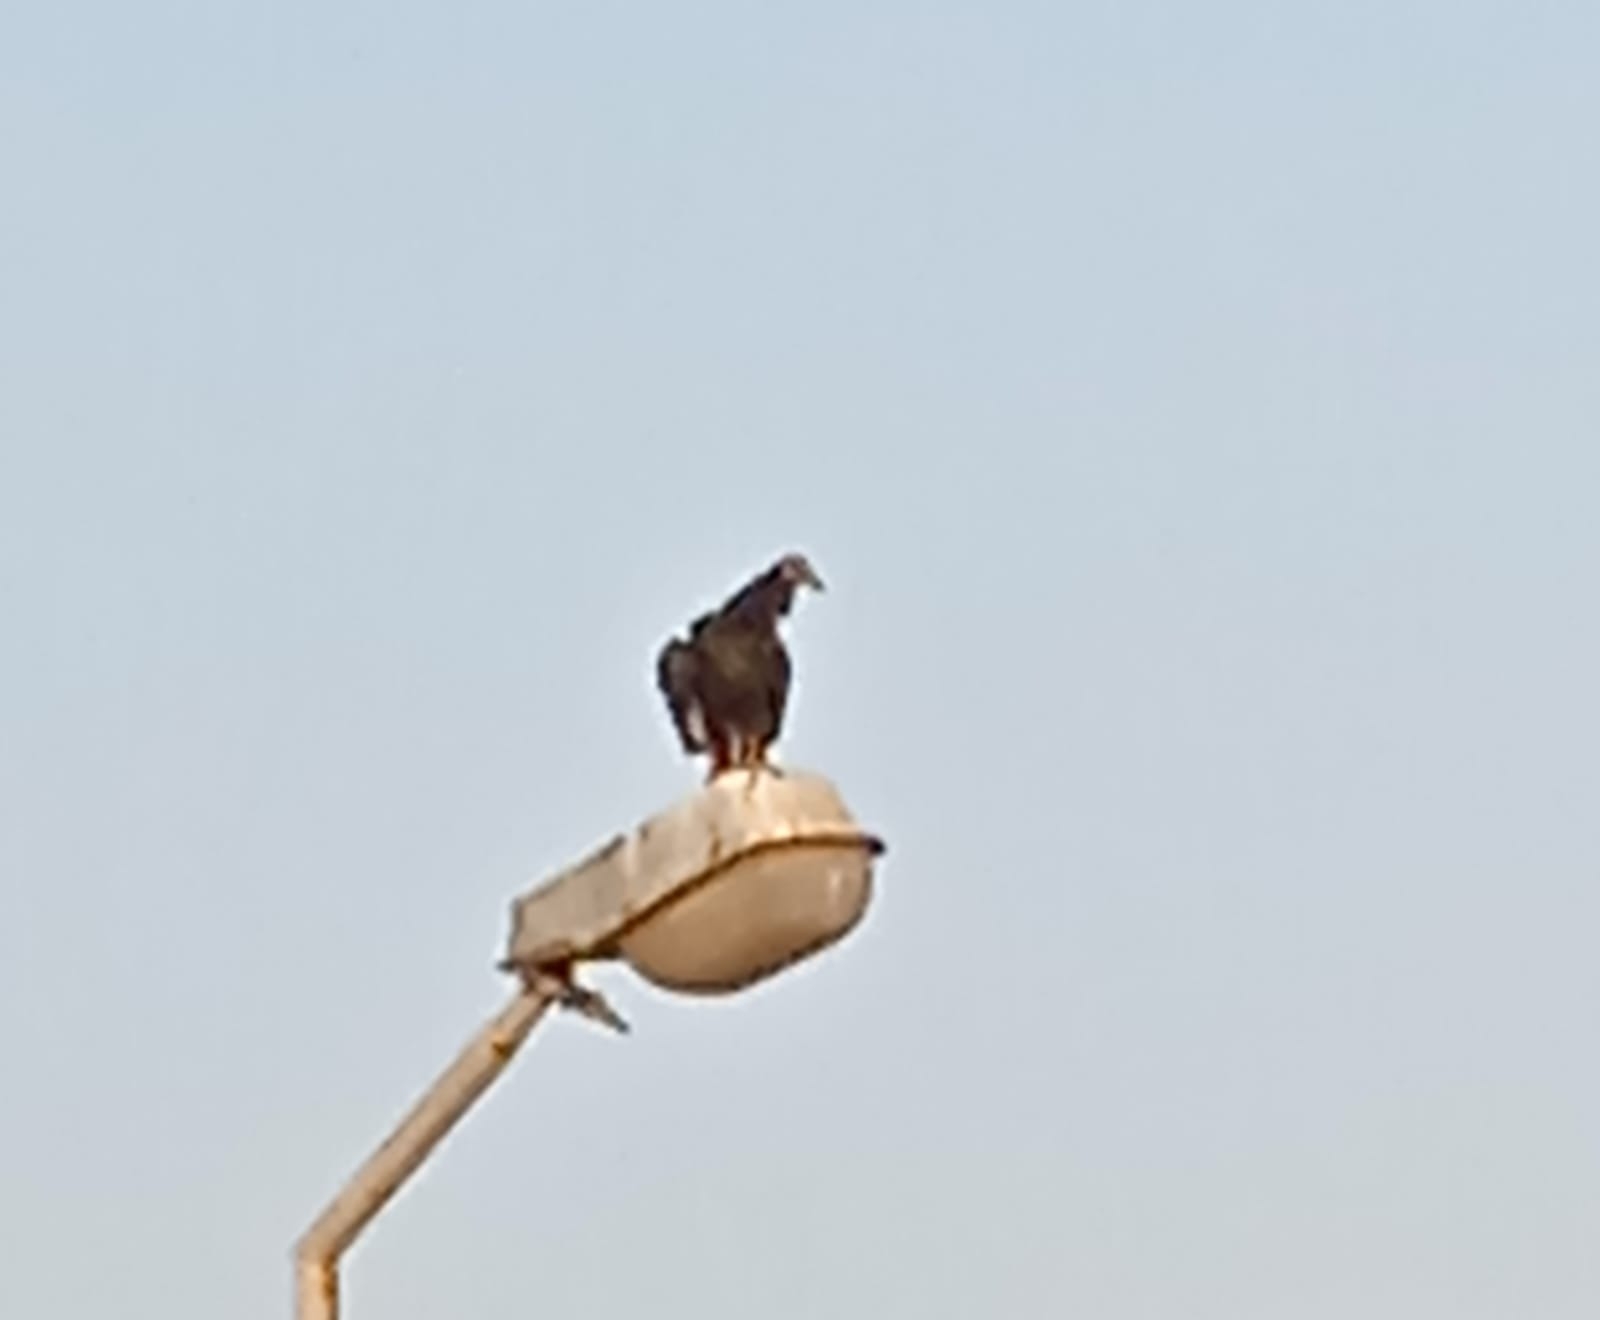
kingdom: Animalia
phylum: Chordata
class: Aves
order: Accipitriformes
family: Cathartidae
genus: Coragyps
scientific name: Coragyps atratus
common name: Black vulture
